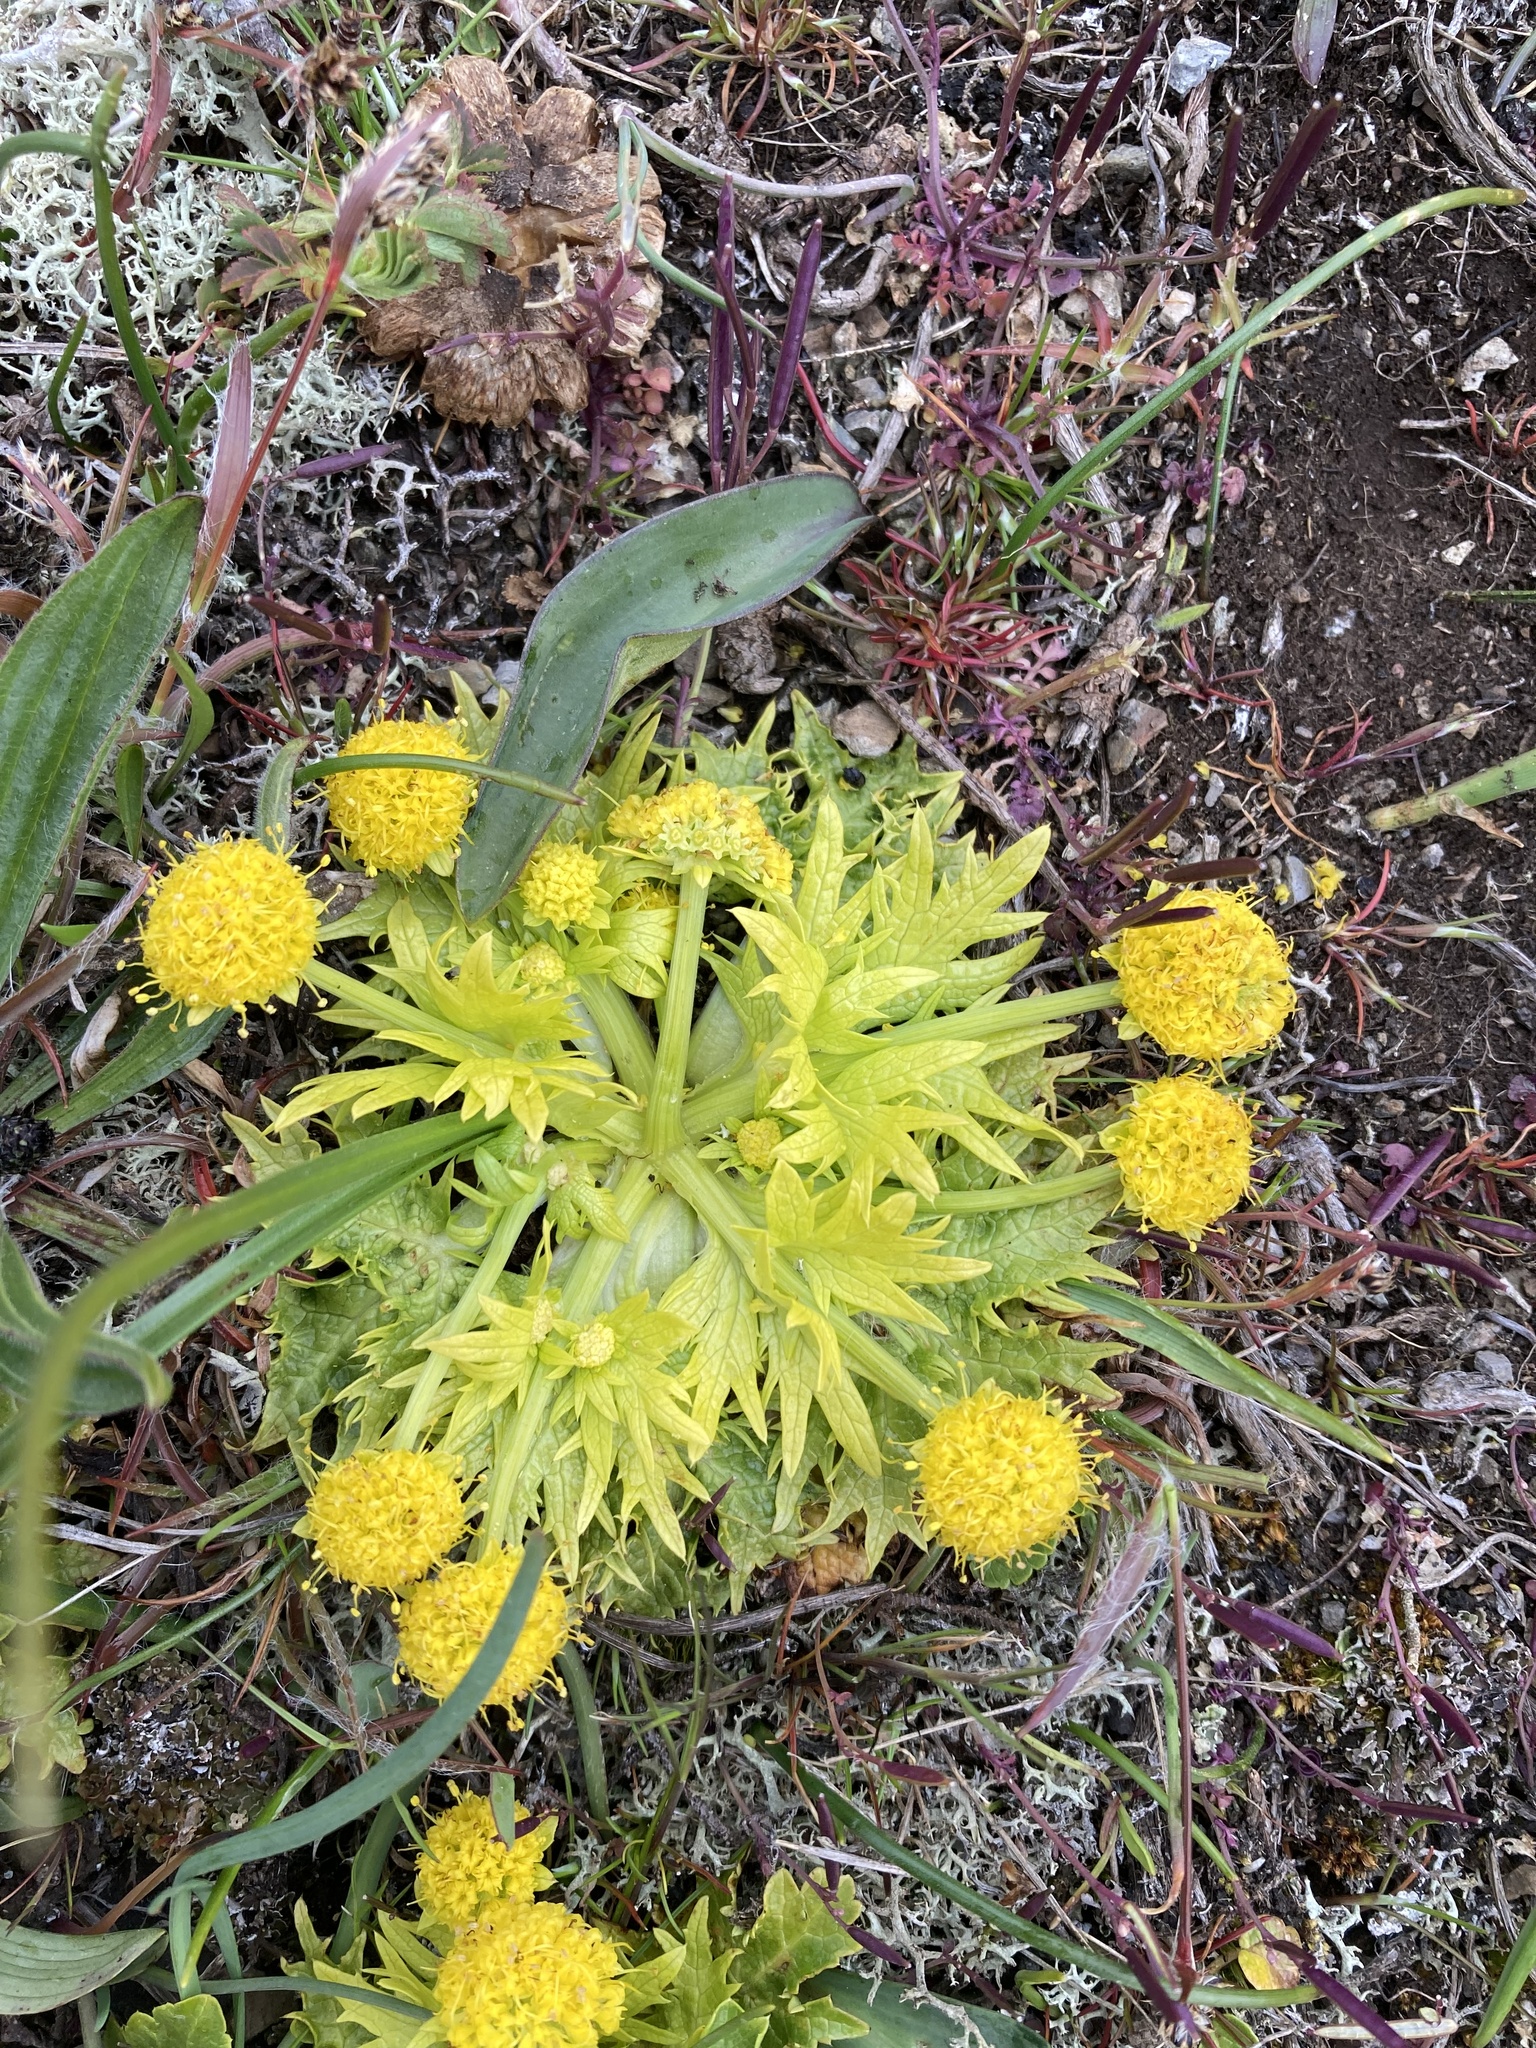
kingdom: Plantae
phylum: Tracheophyta
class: Magnoliopsida
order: Apiales
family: Apiaceae
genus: Sanicula
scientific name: Sanicula arctopoides
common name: Footsteps-of-spring
